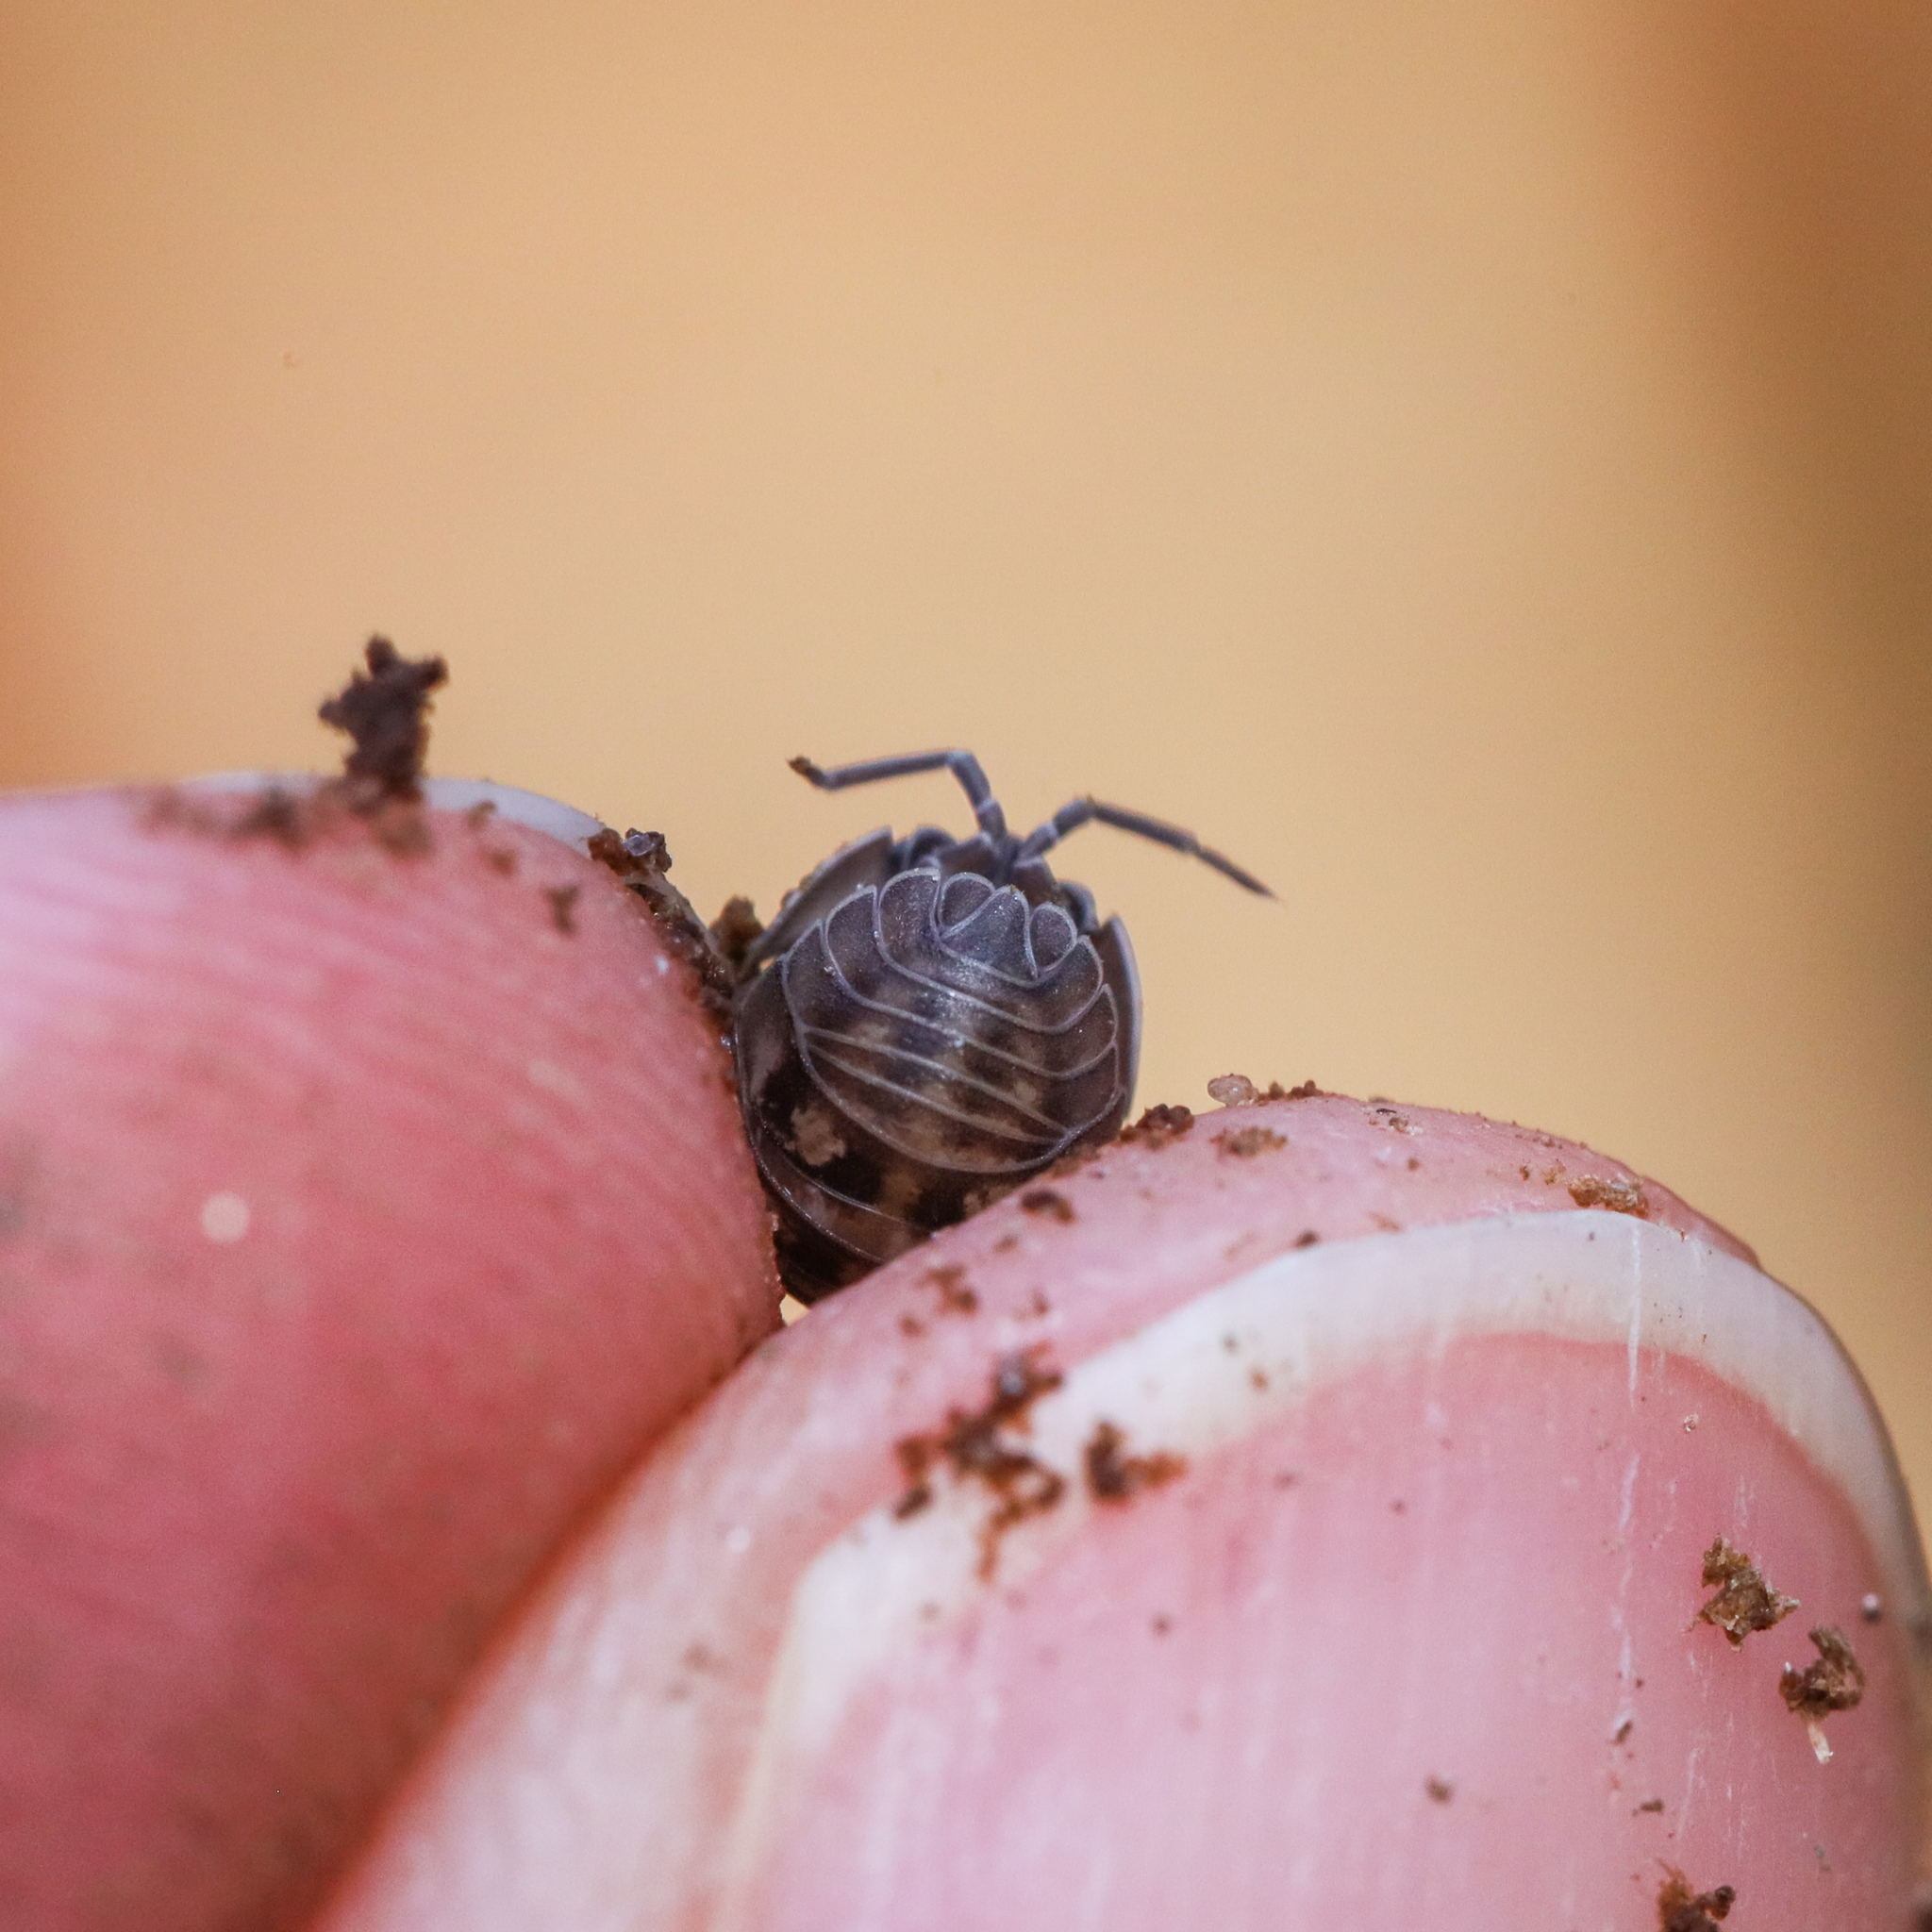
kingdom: Animalia
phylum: Arthropoda
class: Malacostraca
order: Isopoda
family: Armadillidiidae
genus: Armadillidium
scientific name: Armadillidium nasatum
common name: Isopod
